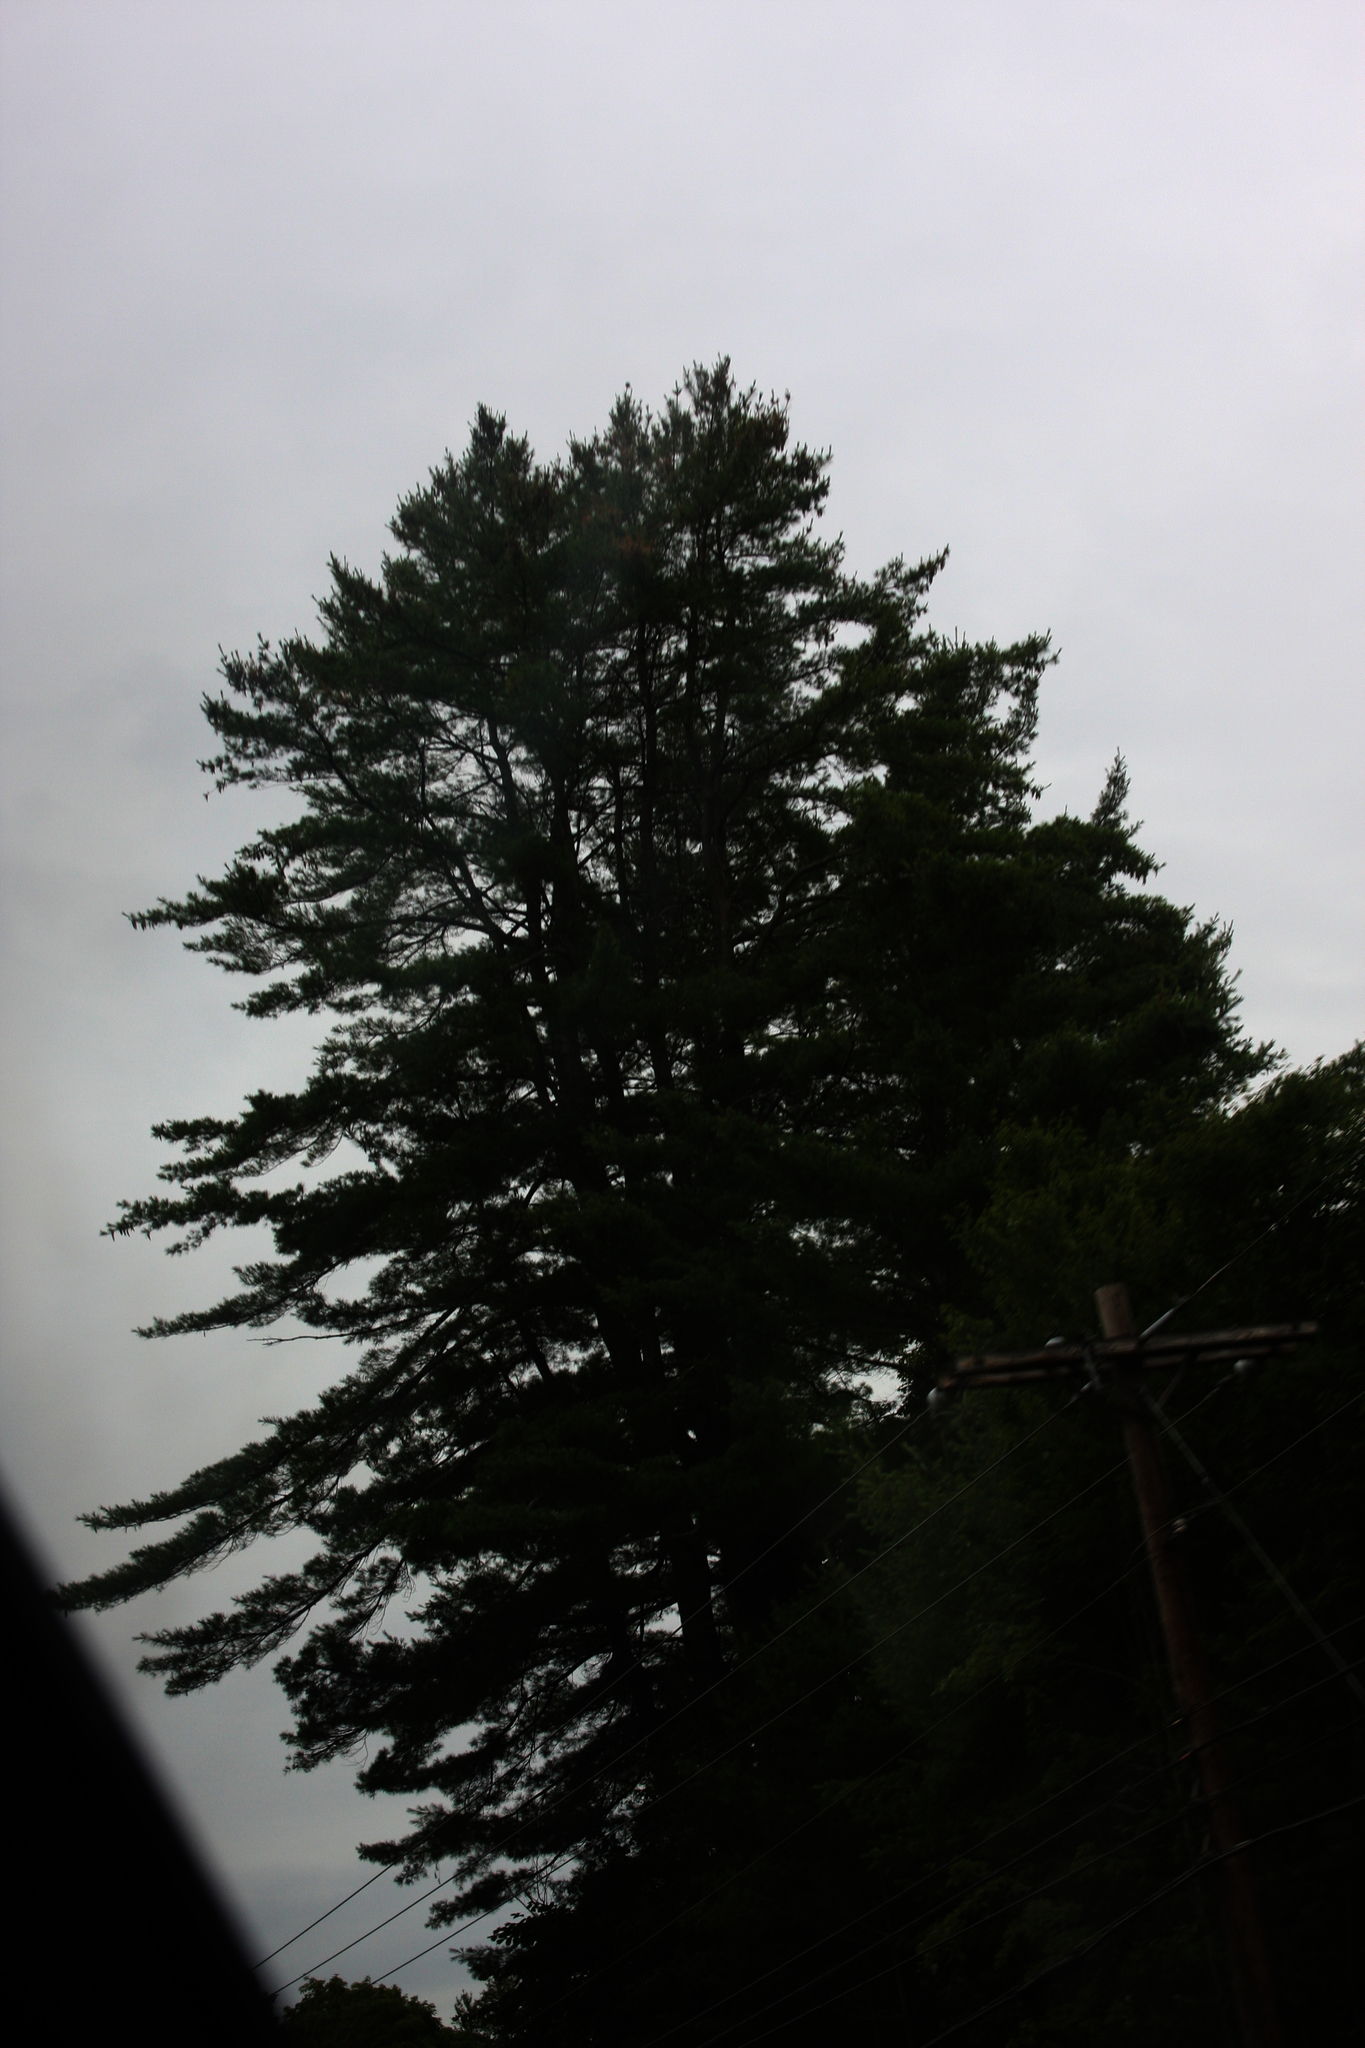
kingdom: Plantae
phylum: Tracheophyta
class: Pinopsida
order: Pinales
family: Pinaceae
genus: Pinus
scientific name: Pinus strobus
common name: Weymouth pine
